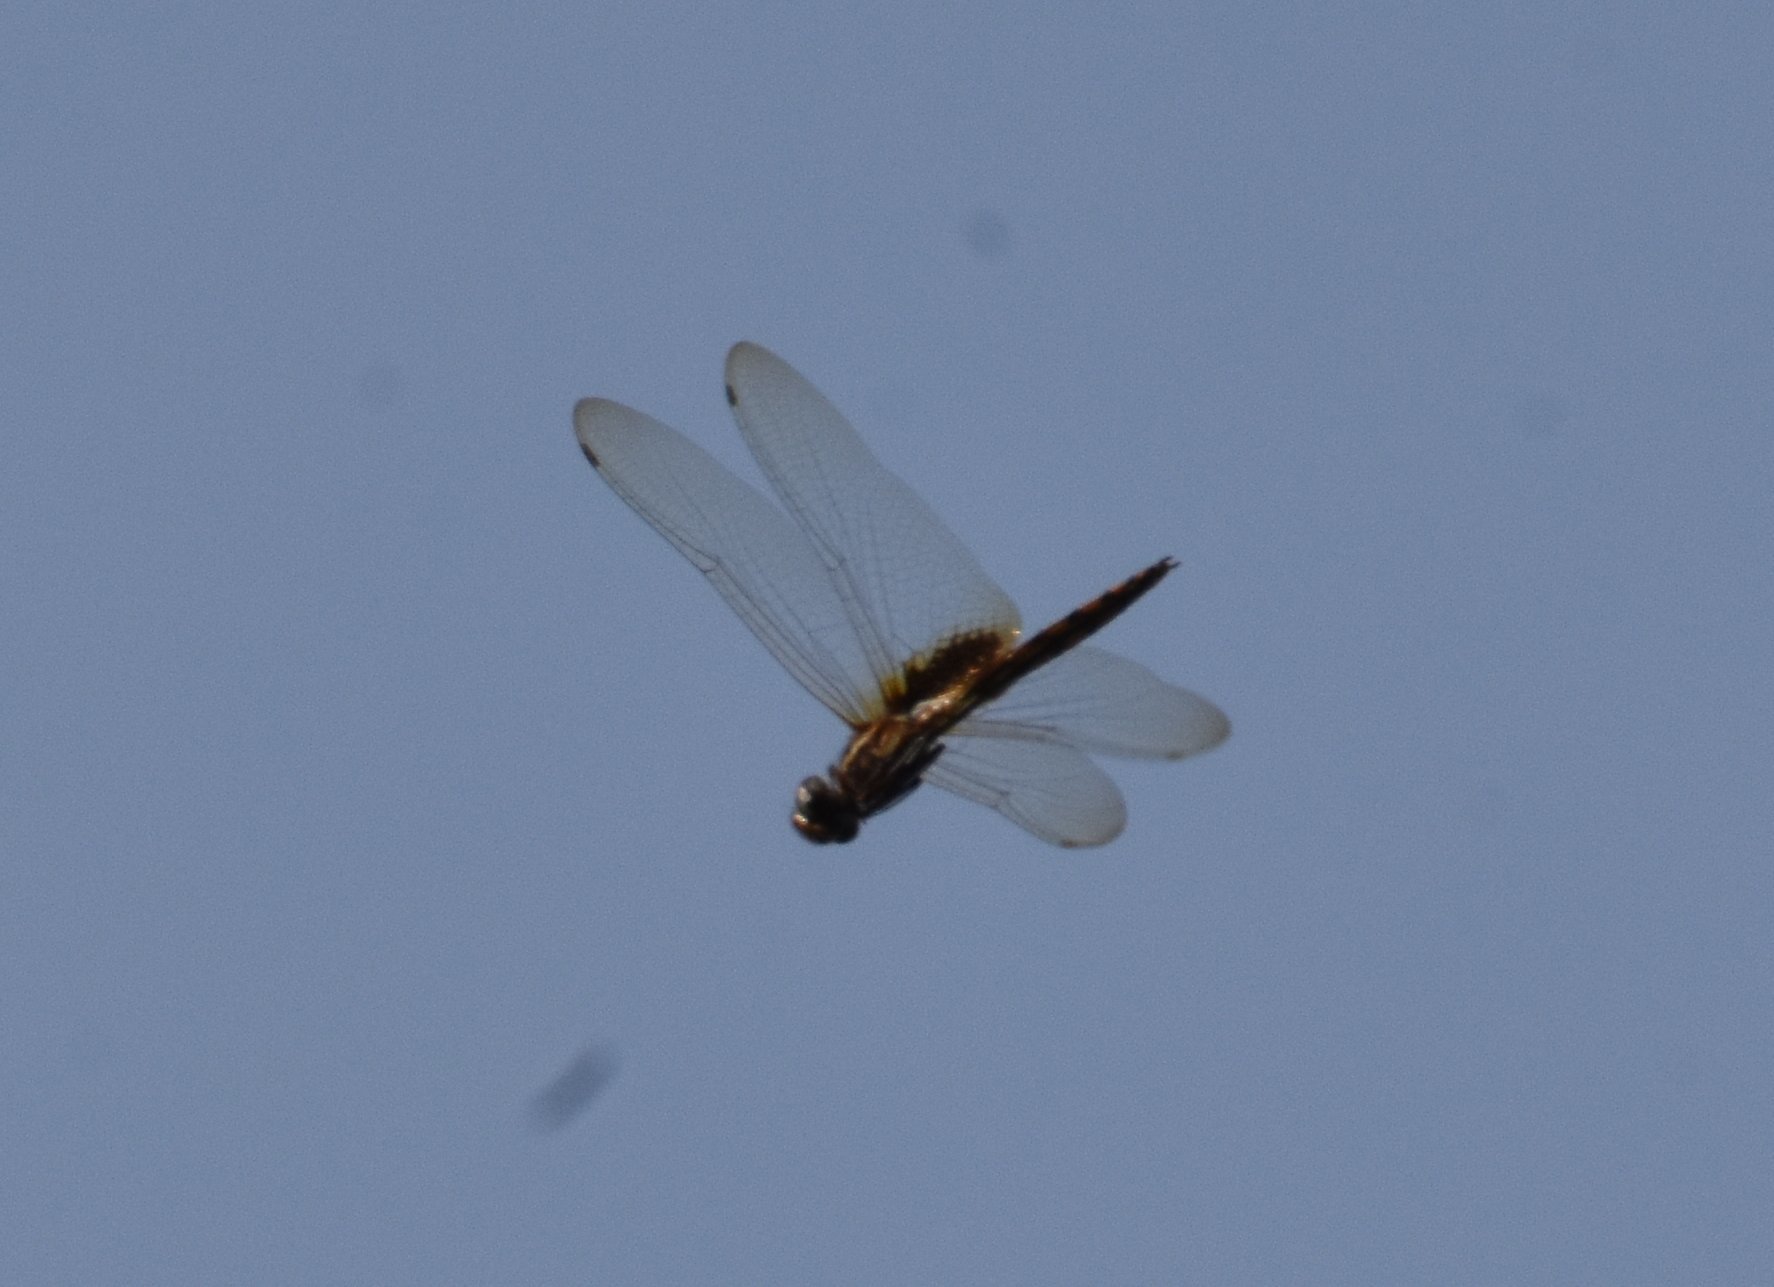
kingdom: Animalia
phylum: Arthropoda
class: Insecta
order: Odonata
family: Libellulidae
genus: Miathyria
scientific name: Miathyria marcella
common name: Hyacinth glider
